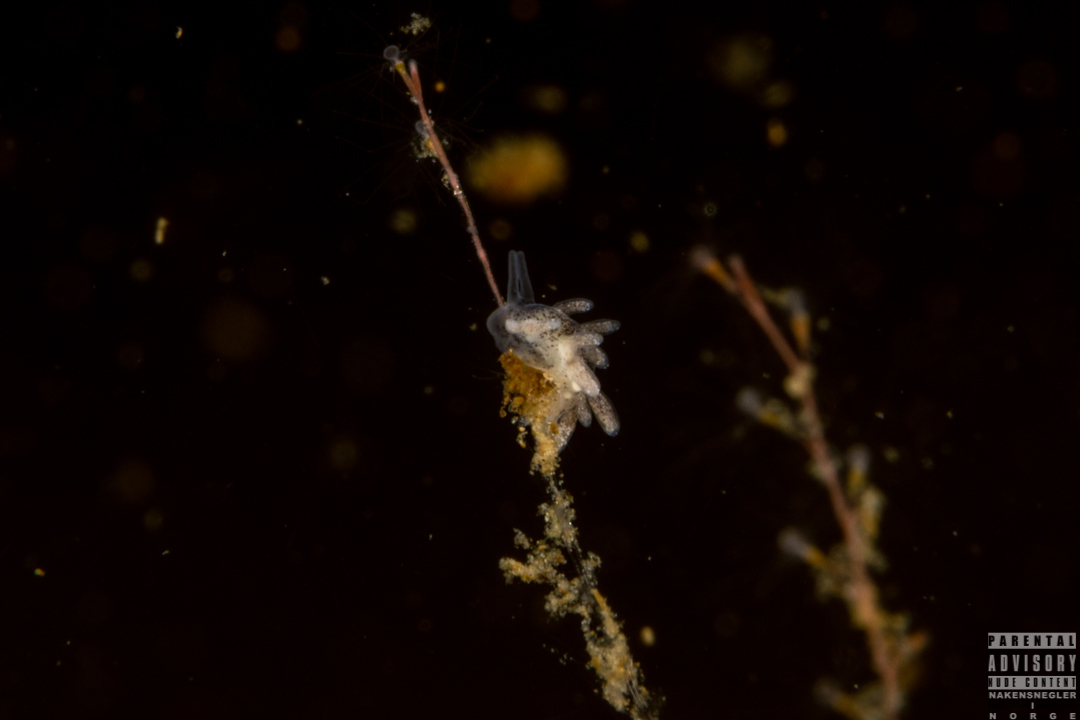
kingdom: Animalia
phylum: Mollusca
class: Gastropoda
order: Nudibranchia
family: Trinchesiidae
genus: Tenellia
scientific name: Tenellia adspersa
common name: Lagoon sea slug
